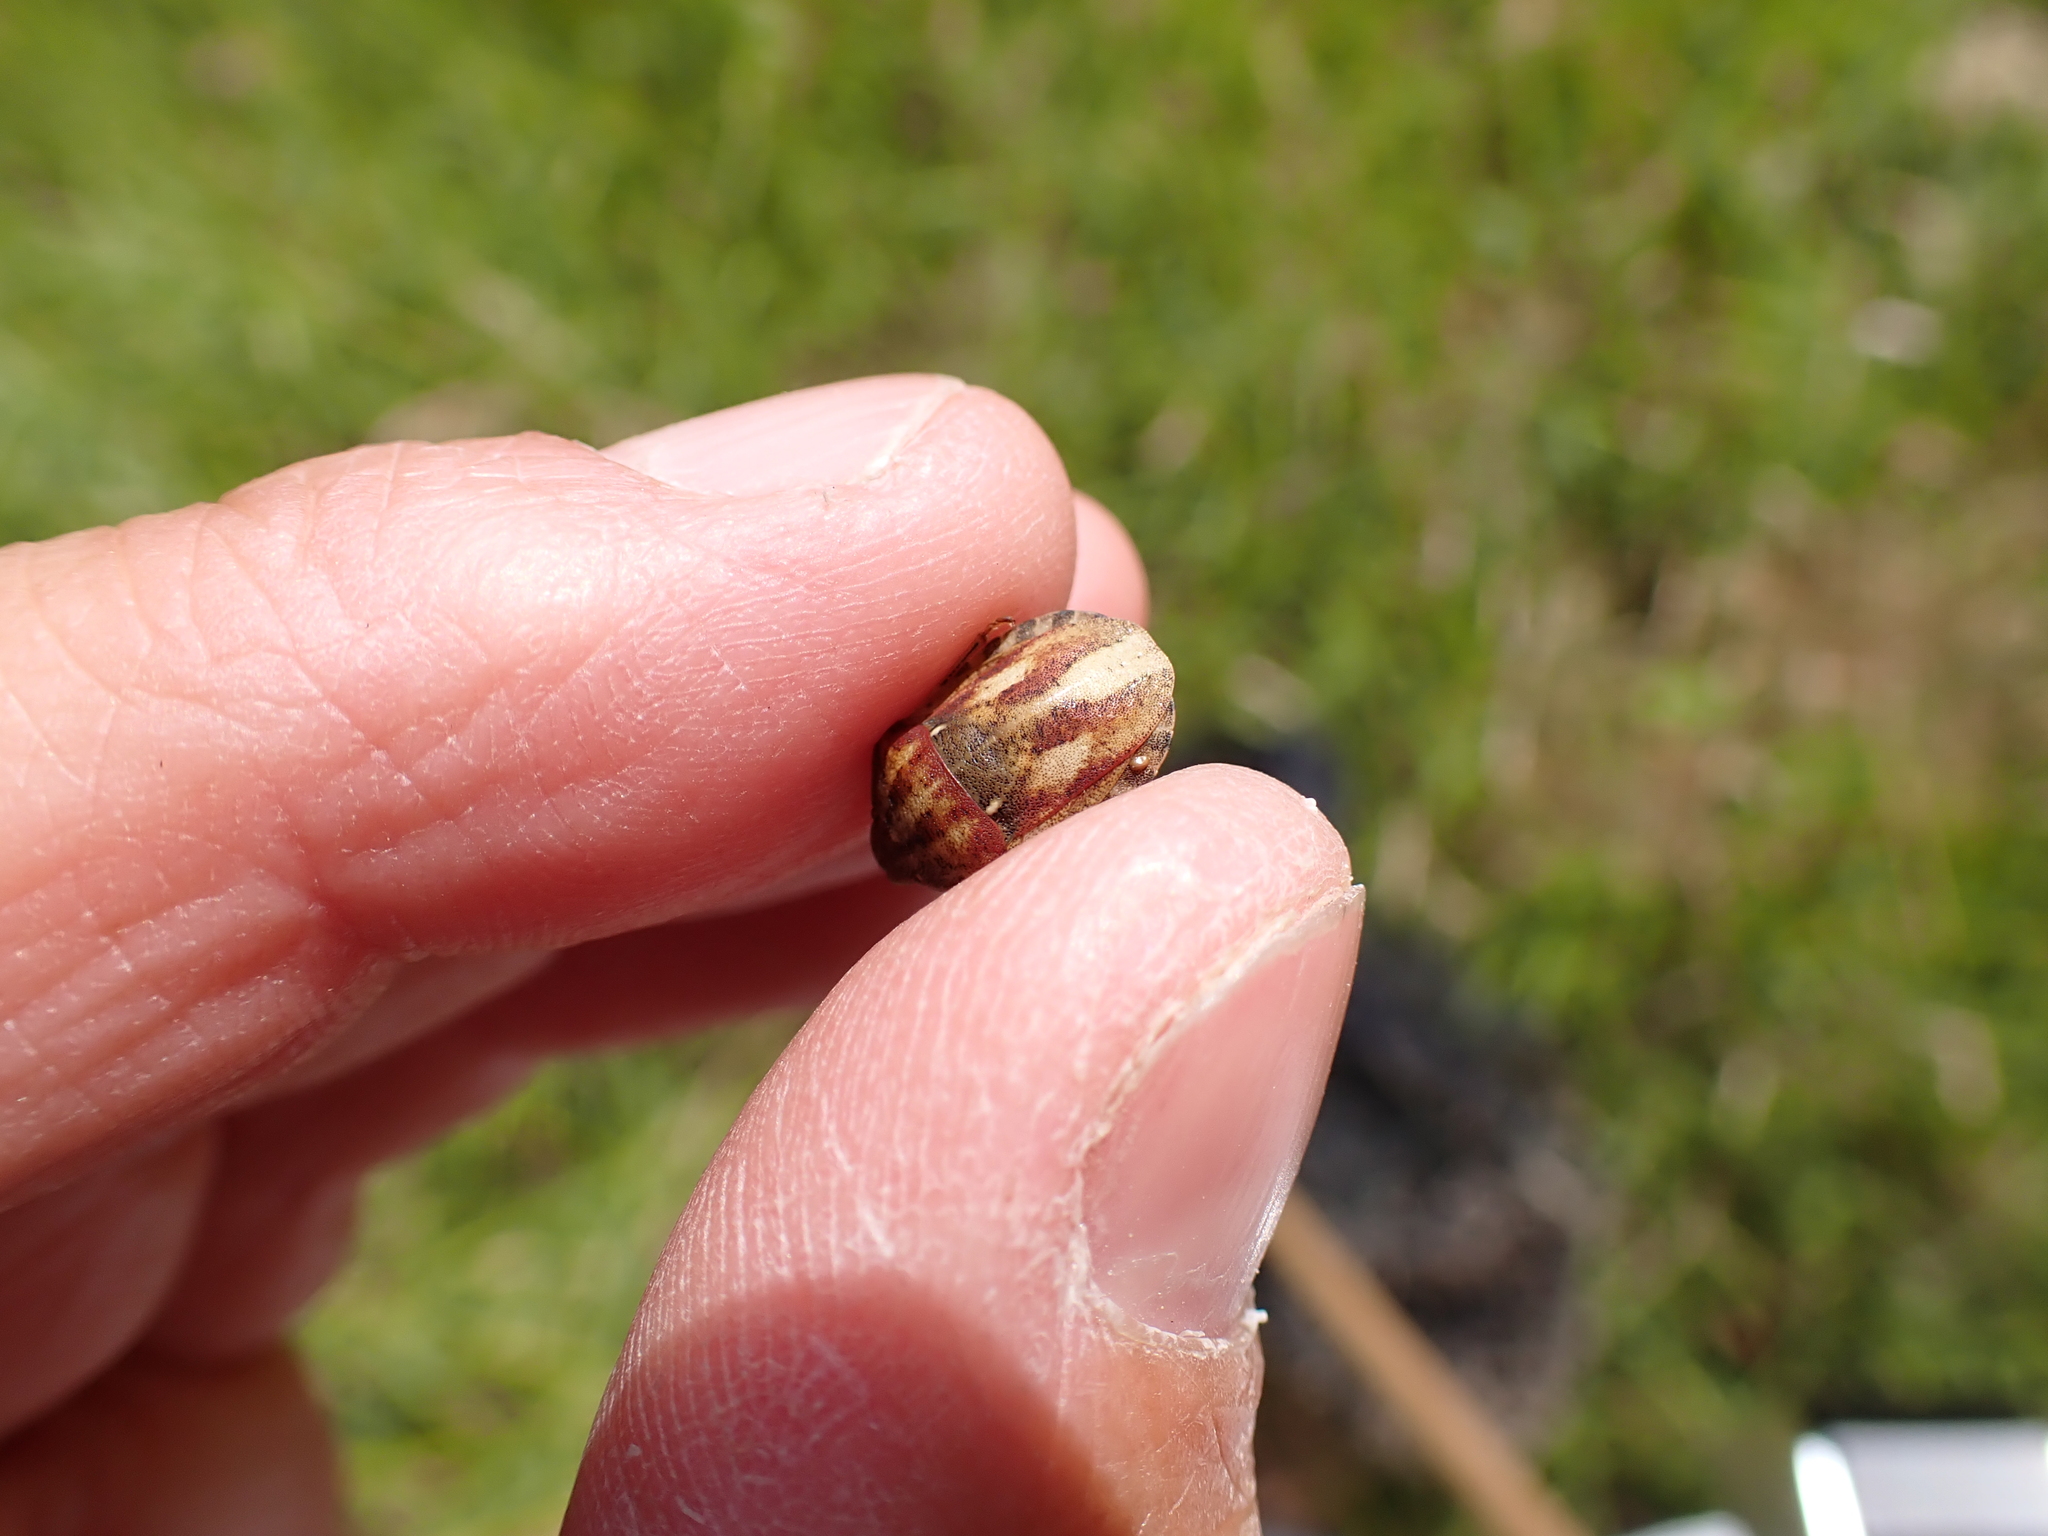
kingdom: Animalia
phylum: Arthropoda
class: Insecta
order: Hemiptera
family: Scutelleridae
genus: Eurygaster
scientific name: Eurygaster testudinaria
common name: Tortoise bug
